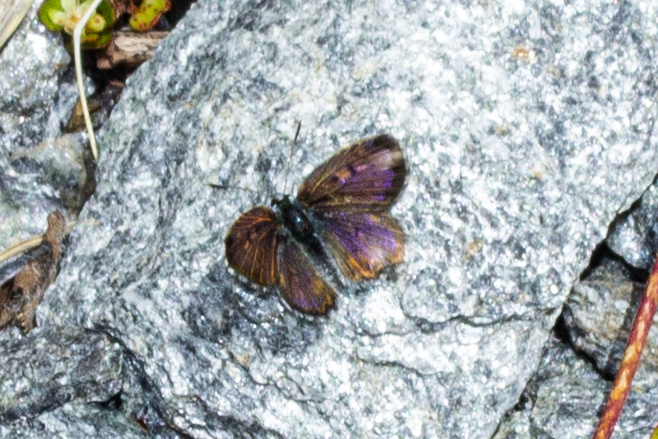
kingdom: Animalia
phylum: Arthropoda
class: Insecta
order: Lepidoptera
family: Lycaenidae
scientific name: Lycaenidae
